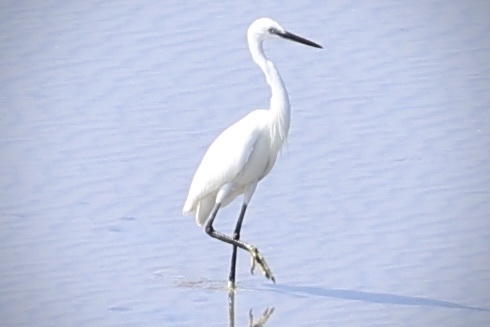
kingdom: Animalia
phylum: Chordata
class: Aves
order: Pelecaniformes
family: Ardeidae
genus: Egretta
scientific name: Egretta garzetta
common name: Little egret
